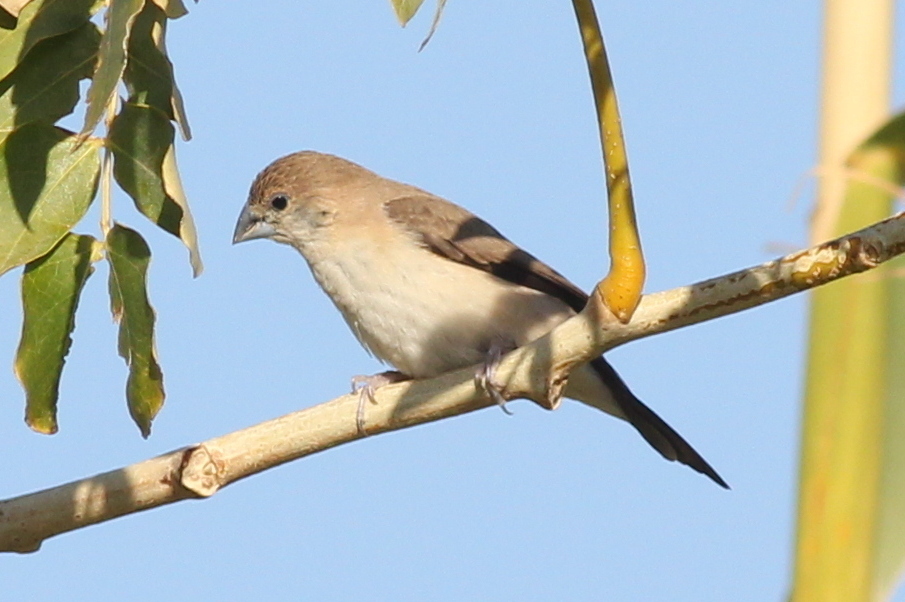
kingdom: Animalia
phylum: Chordata
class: Aves
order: Passeriformes
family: Estrildidae
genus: Euodice
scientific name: Euodice malabarica
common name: Indian silverbill
